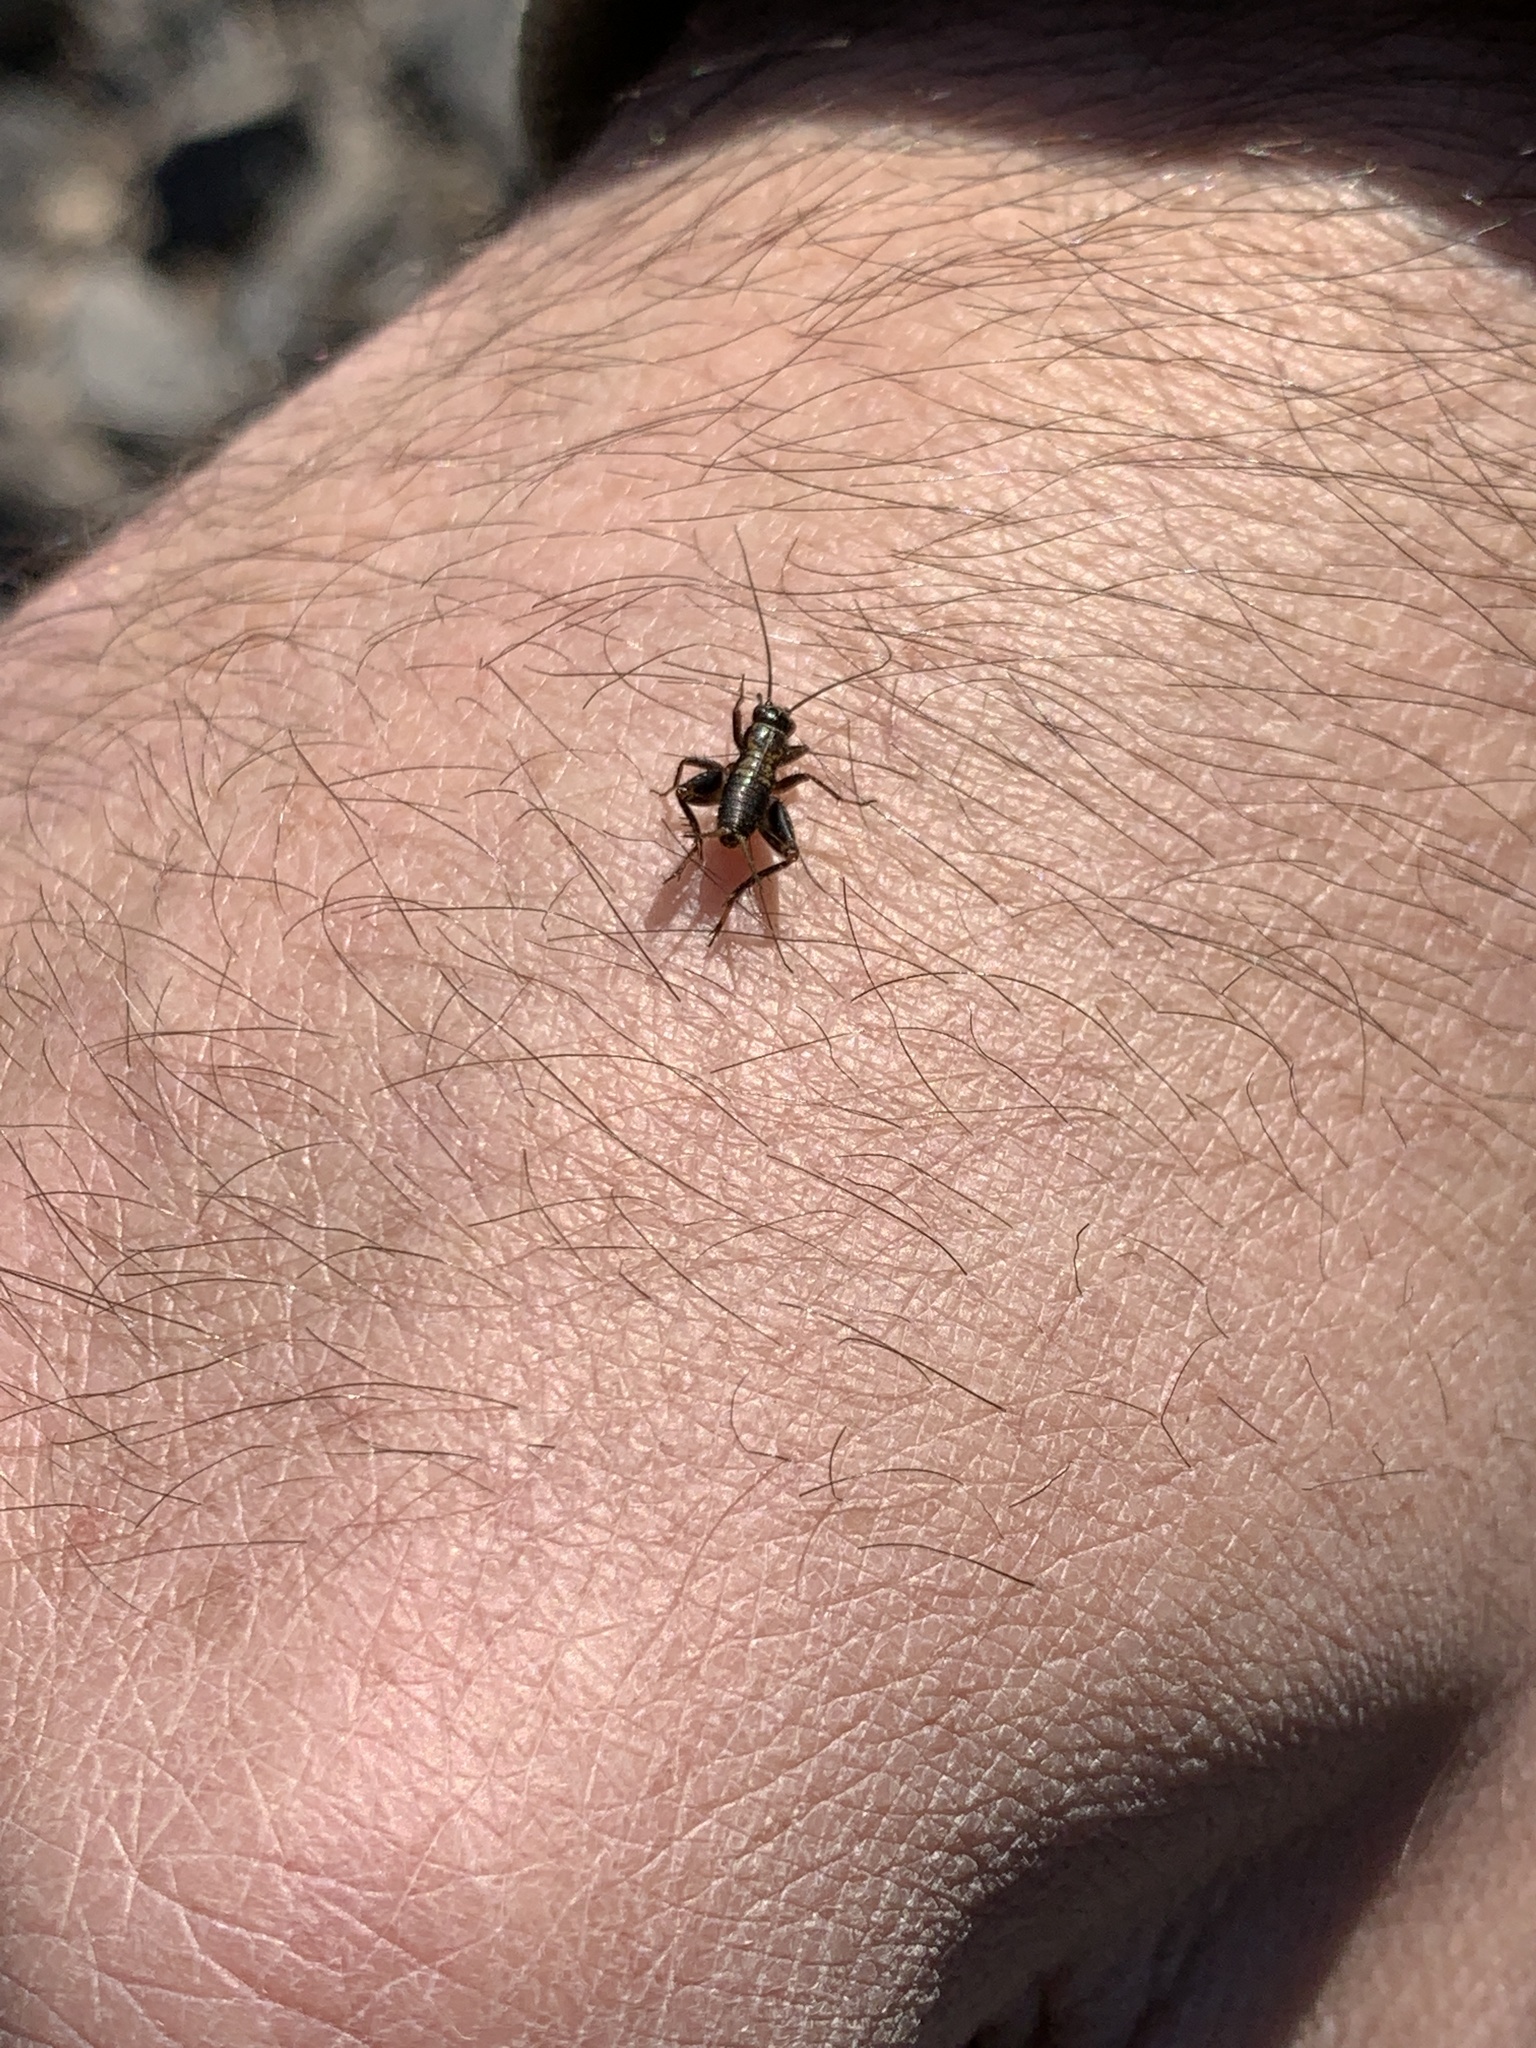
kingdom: Animalia
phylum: Arthropoda
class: Insecta
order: Orthoptera
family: Trigonidiidae
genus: Nemobius
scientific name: Nemobius sylvestris
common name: Wood-cricket
